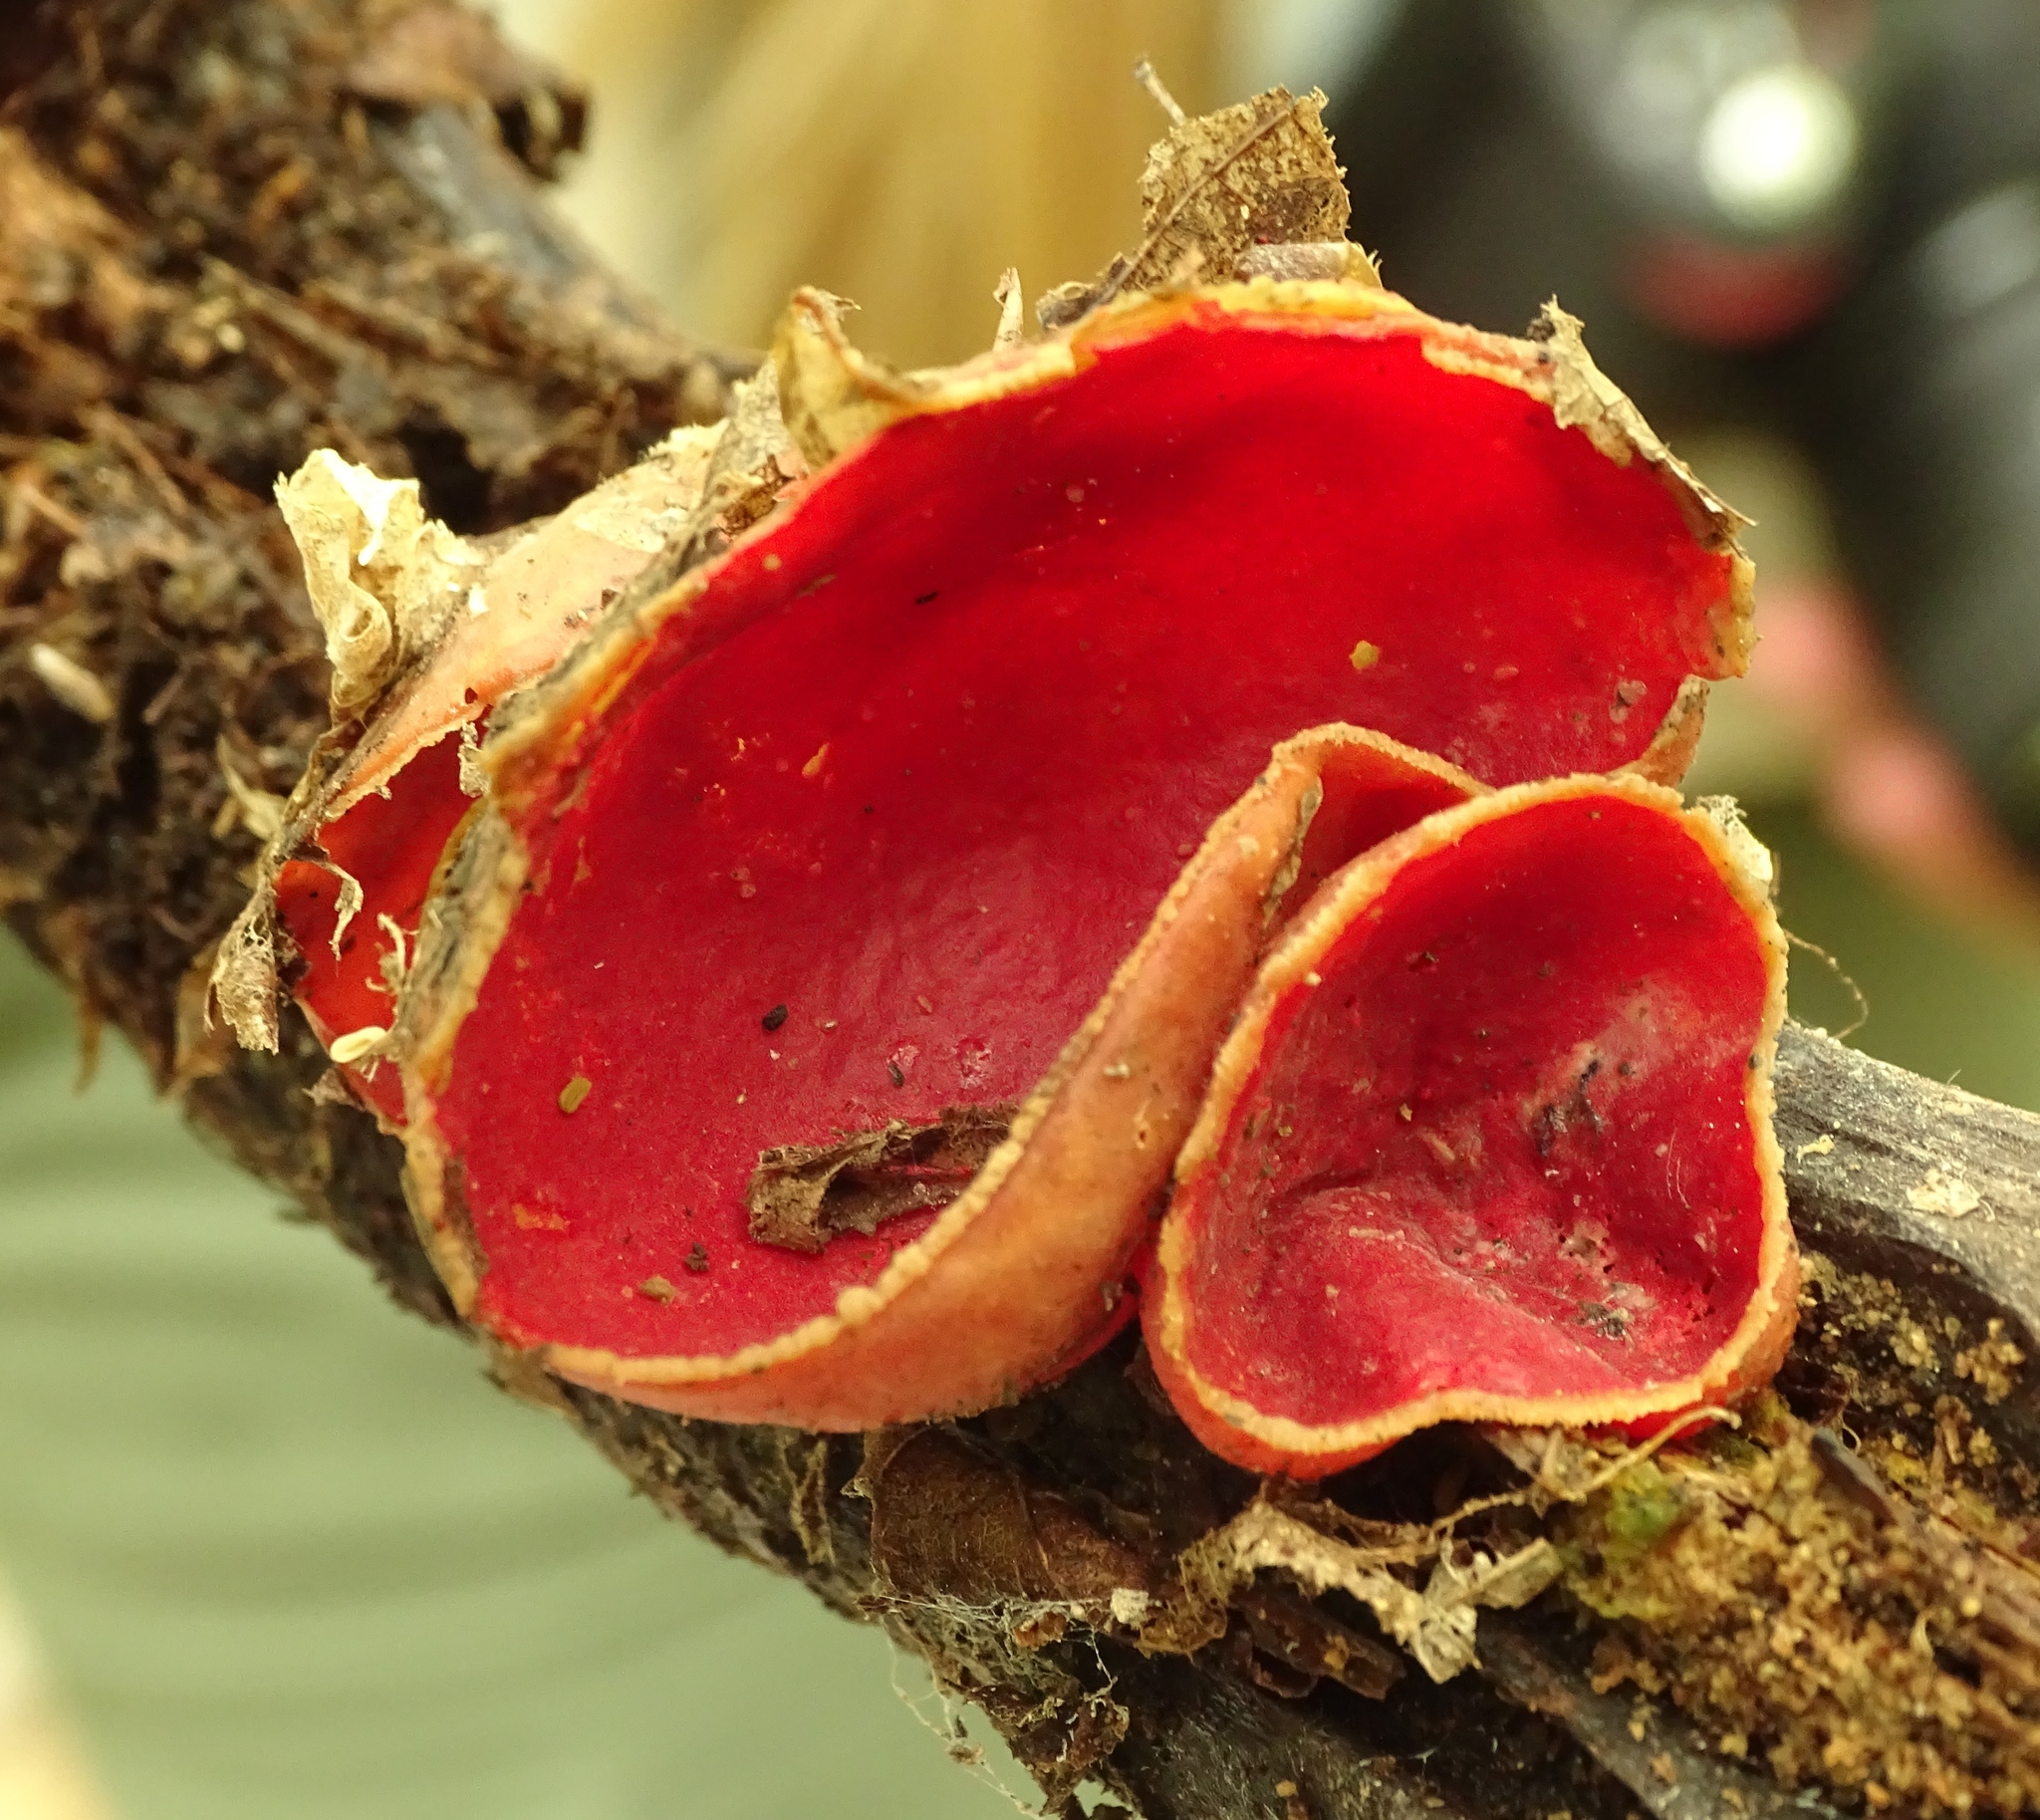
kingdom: Fungi
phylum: Ascomycota
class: Pezizomycetes
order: Pezizales
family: Sarcoscyphaceae
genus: Sarcoscypha
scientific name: Sarcoscypha austriaca
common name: Scarlet elfcup
